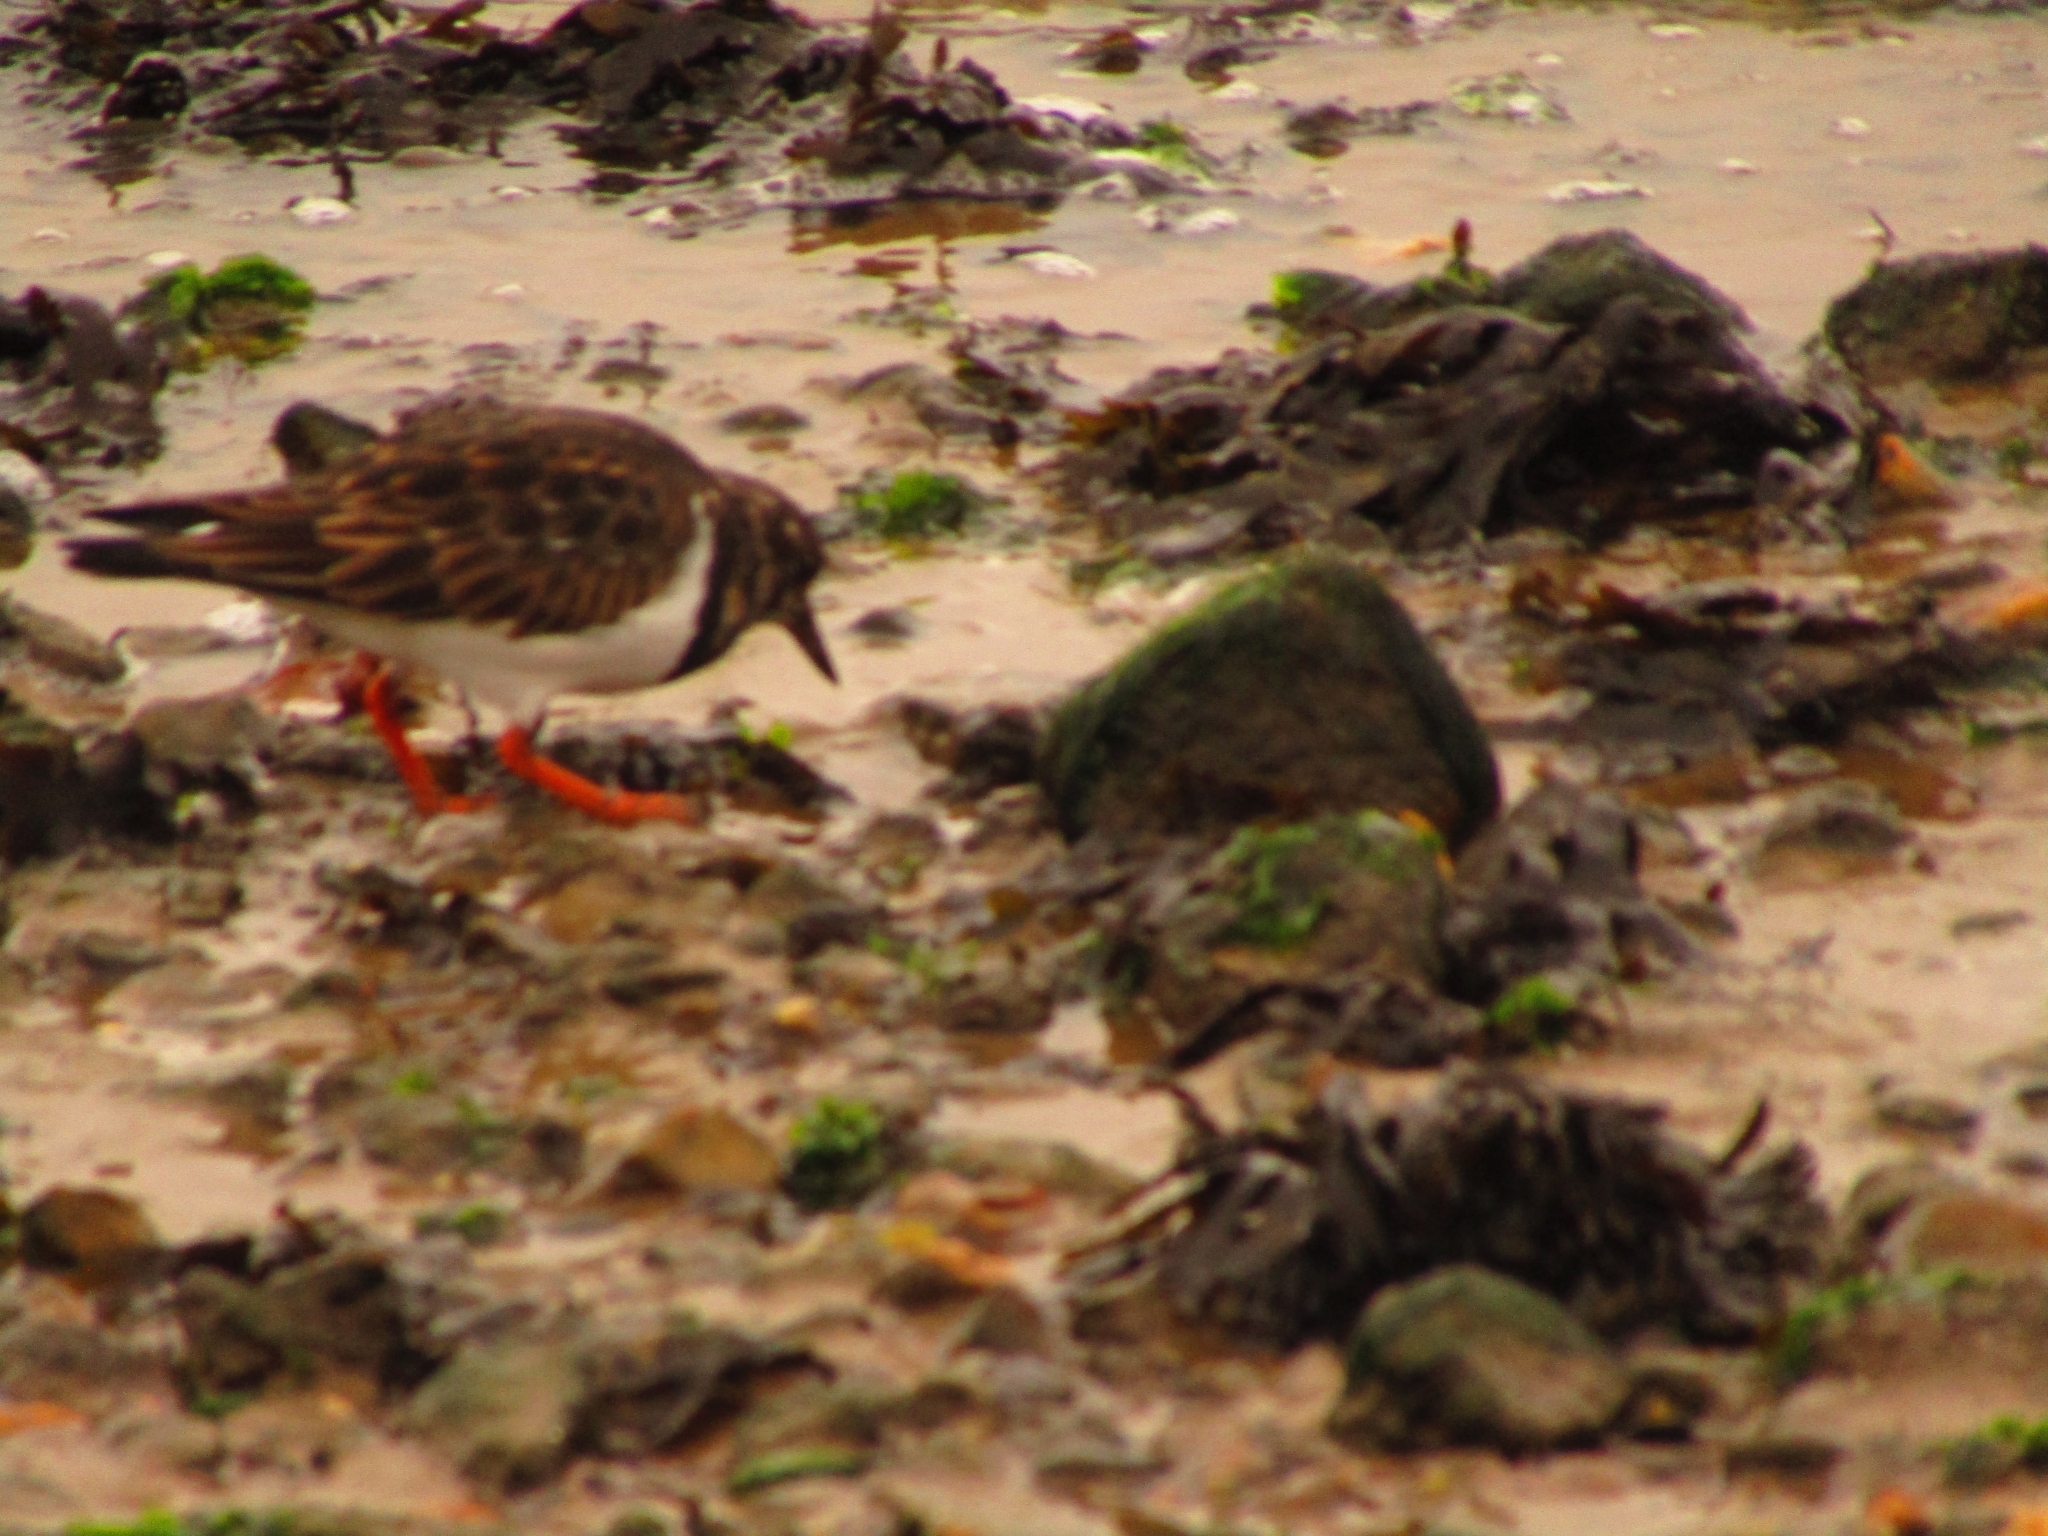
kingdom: Animalia
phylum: Chordata
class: Aves
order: Charadriiformes
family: Scolopacidae
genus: Arenaria
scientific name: Arenaria interpres
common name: Ruddy turnstone
